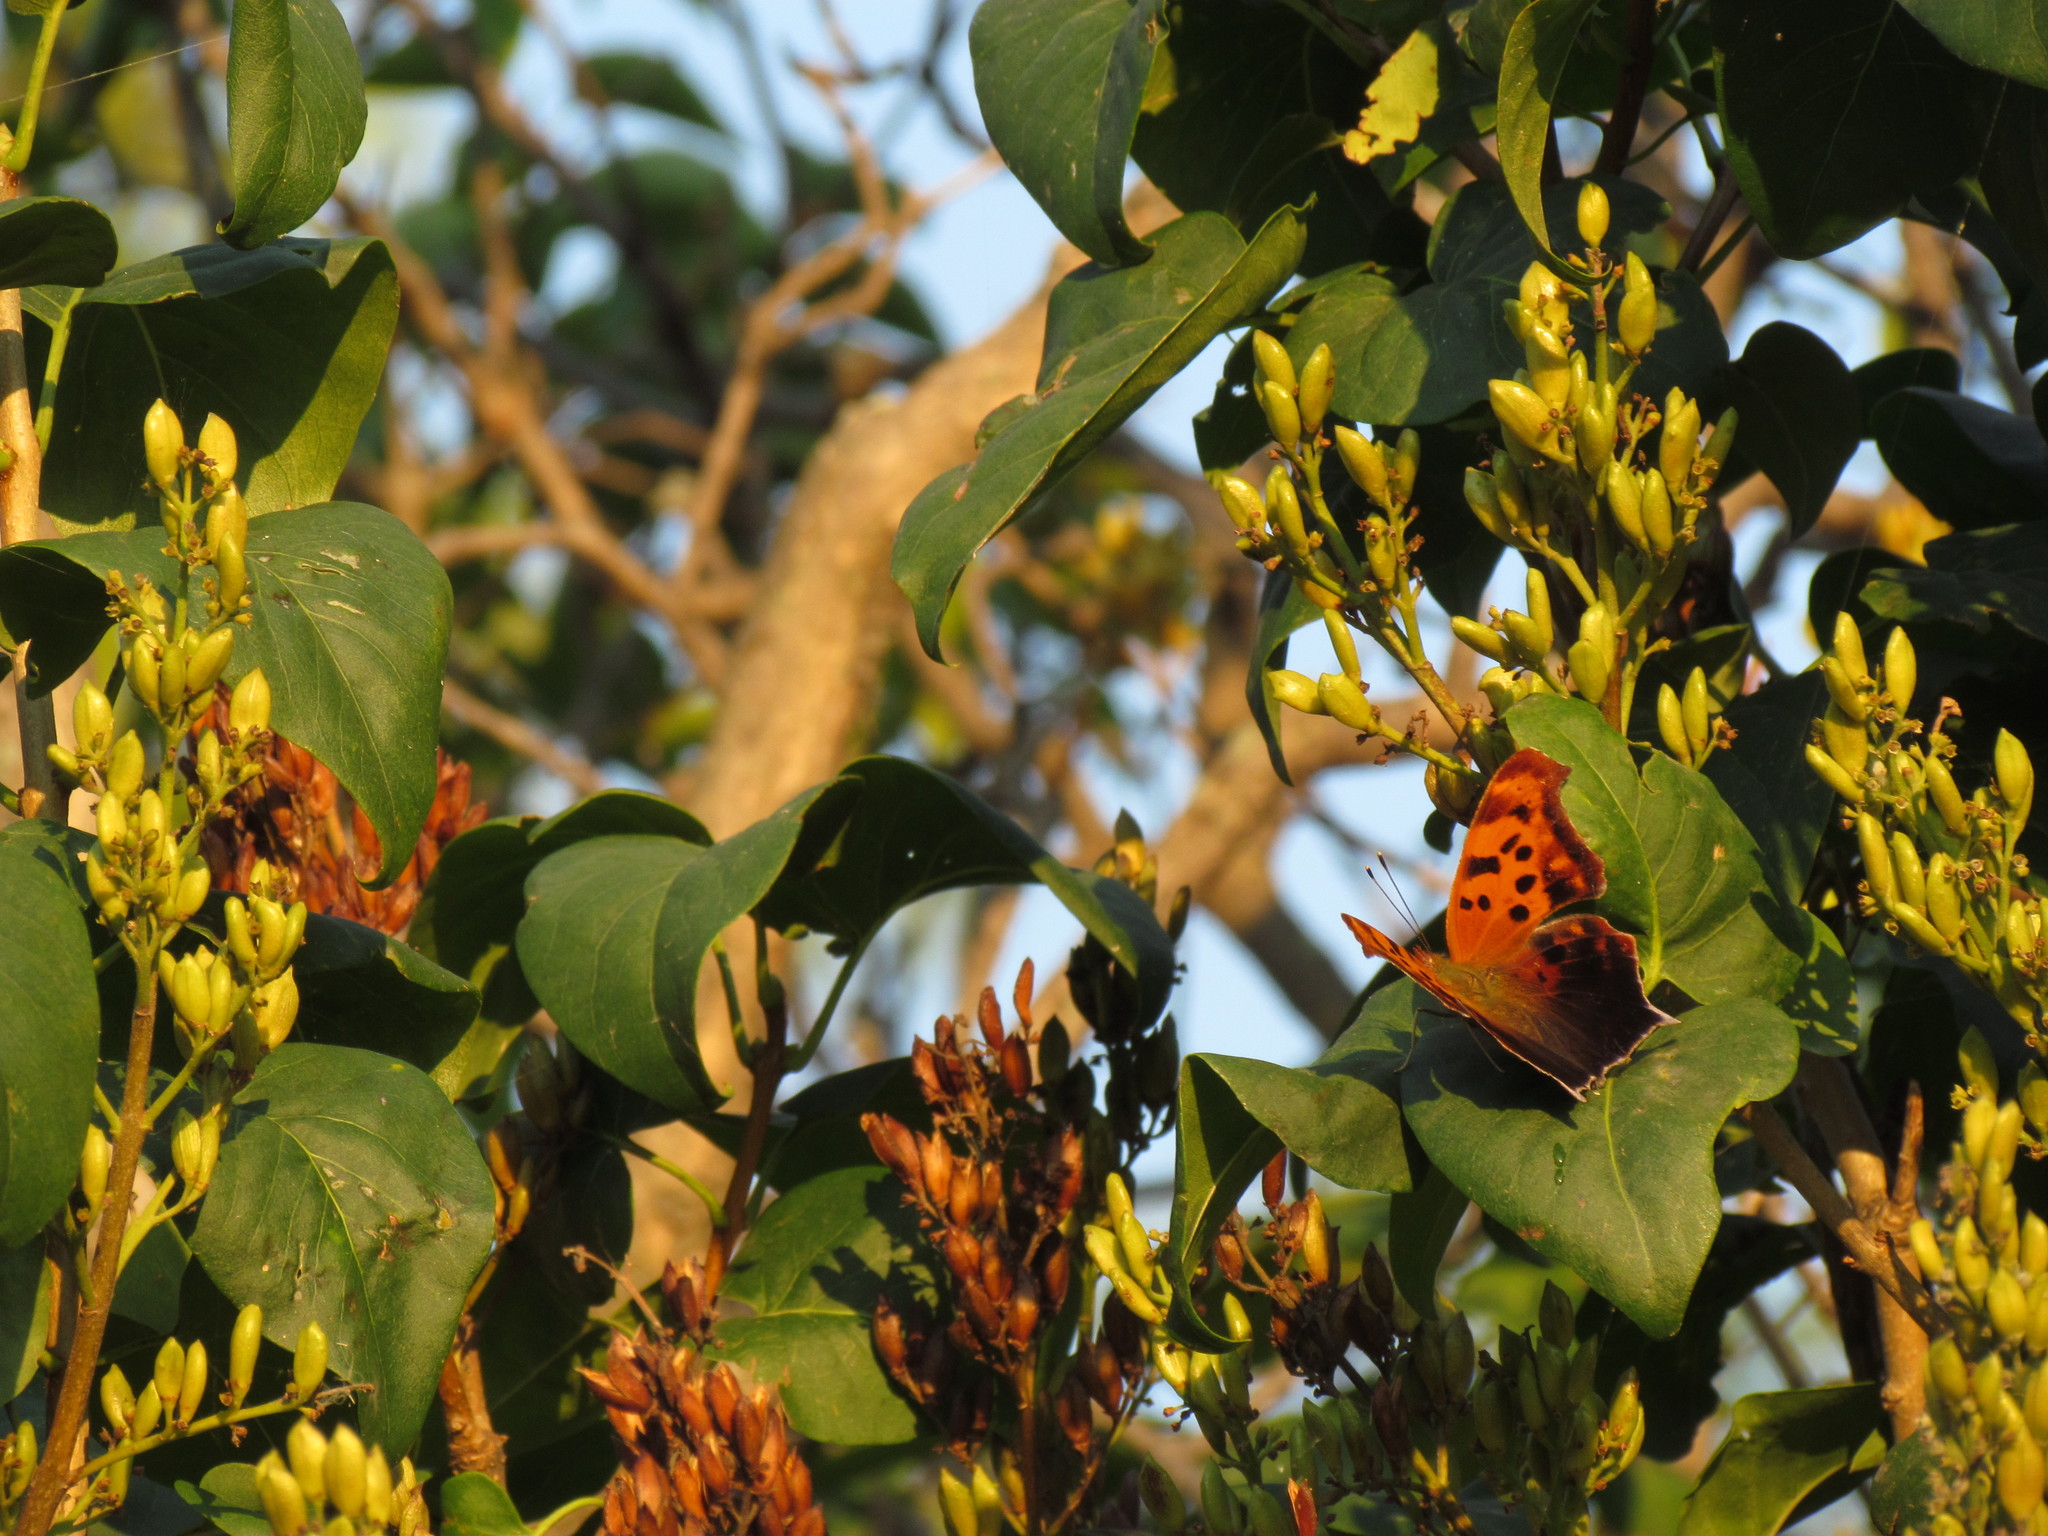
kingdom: Animalia
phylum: Arthropoda
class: Insecta
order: Lepidoptera
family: Nymphalidae
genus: Polygonia
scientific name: Polygonia interrogationis
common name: Question mark
